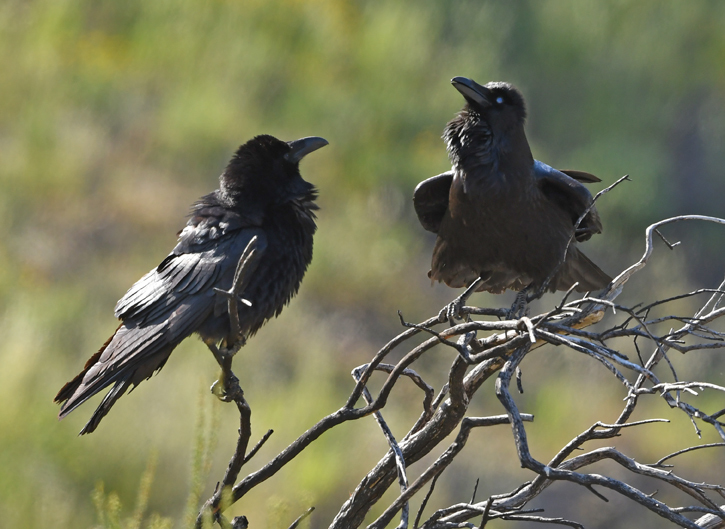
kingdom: Animalia
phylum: Chordata
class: Aves
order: Passeriformes
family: Corvidae
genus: Corvus
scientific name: Corvus corax
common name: Common raven
